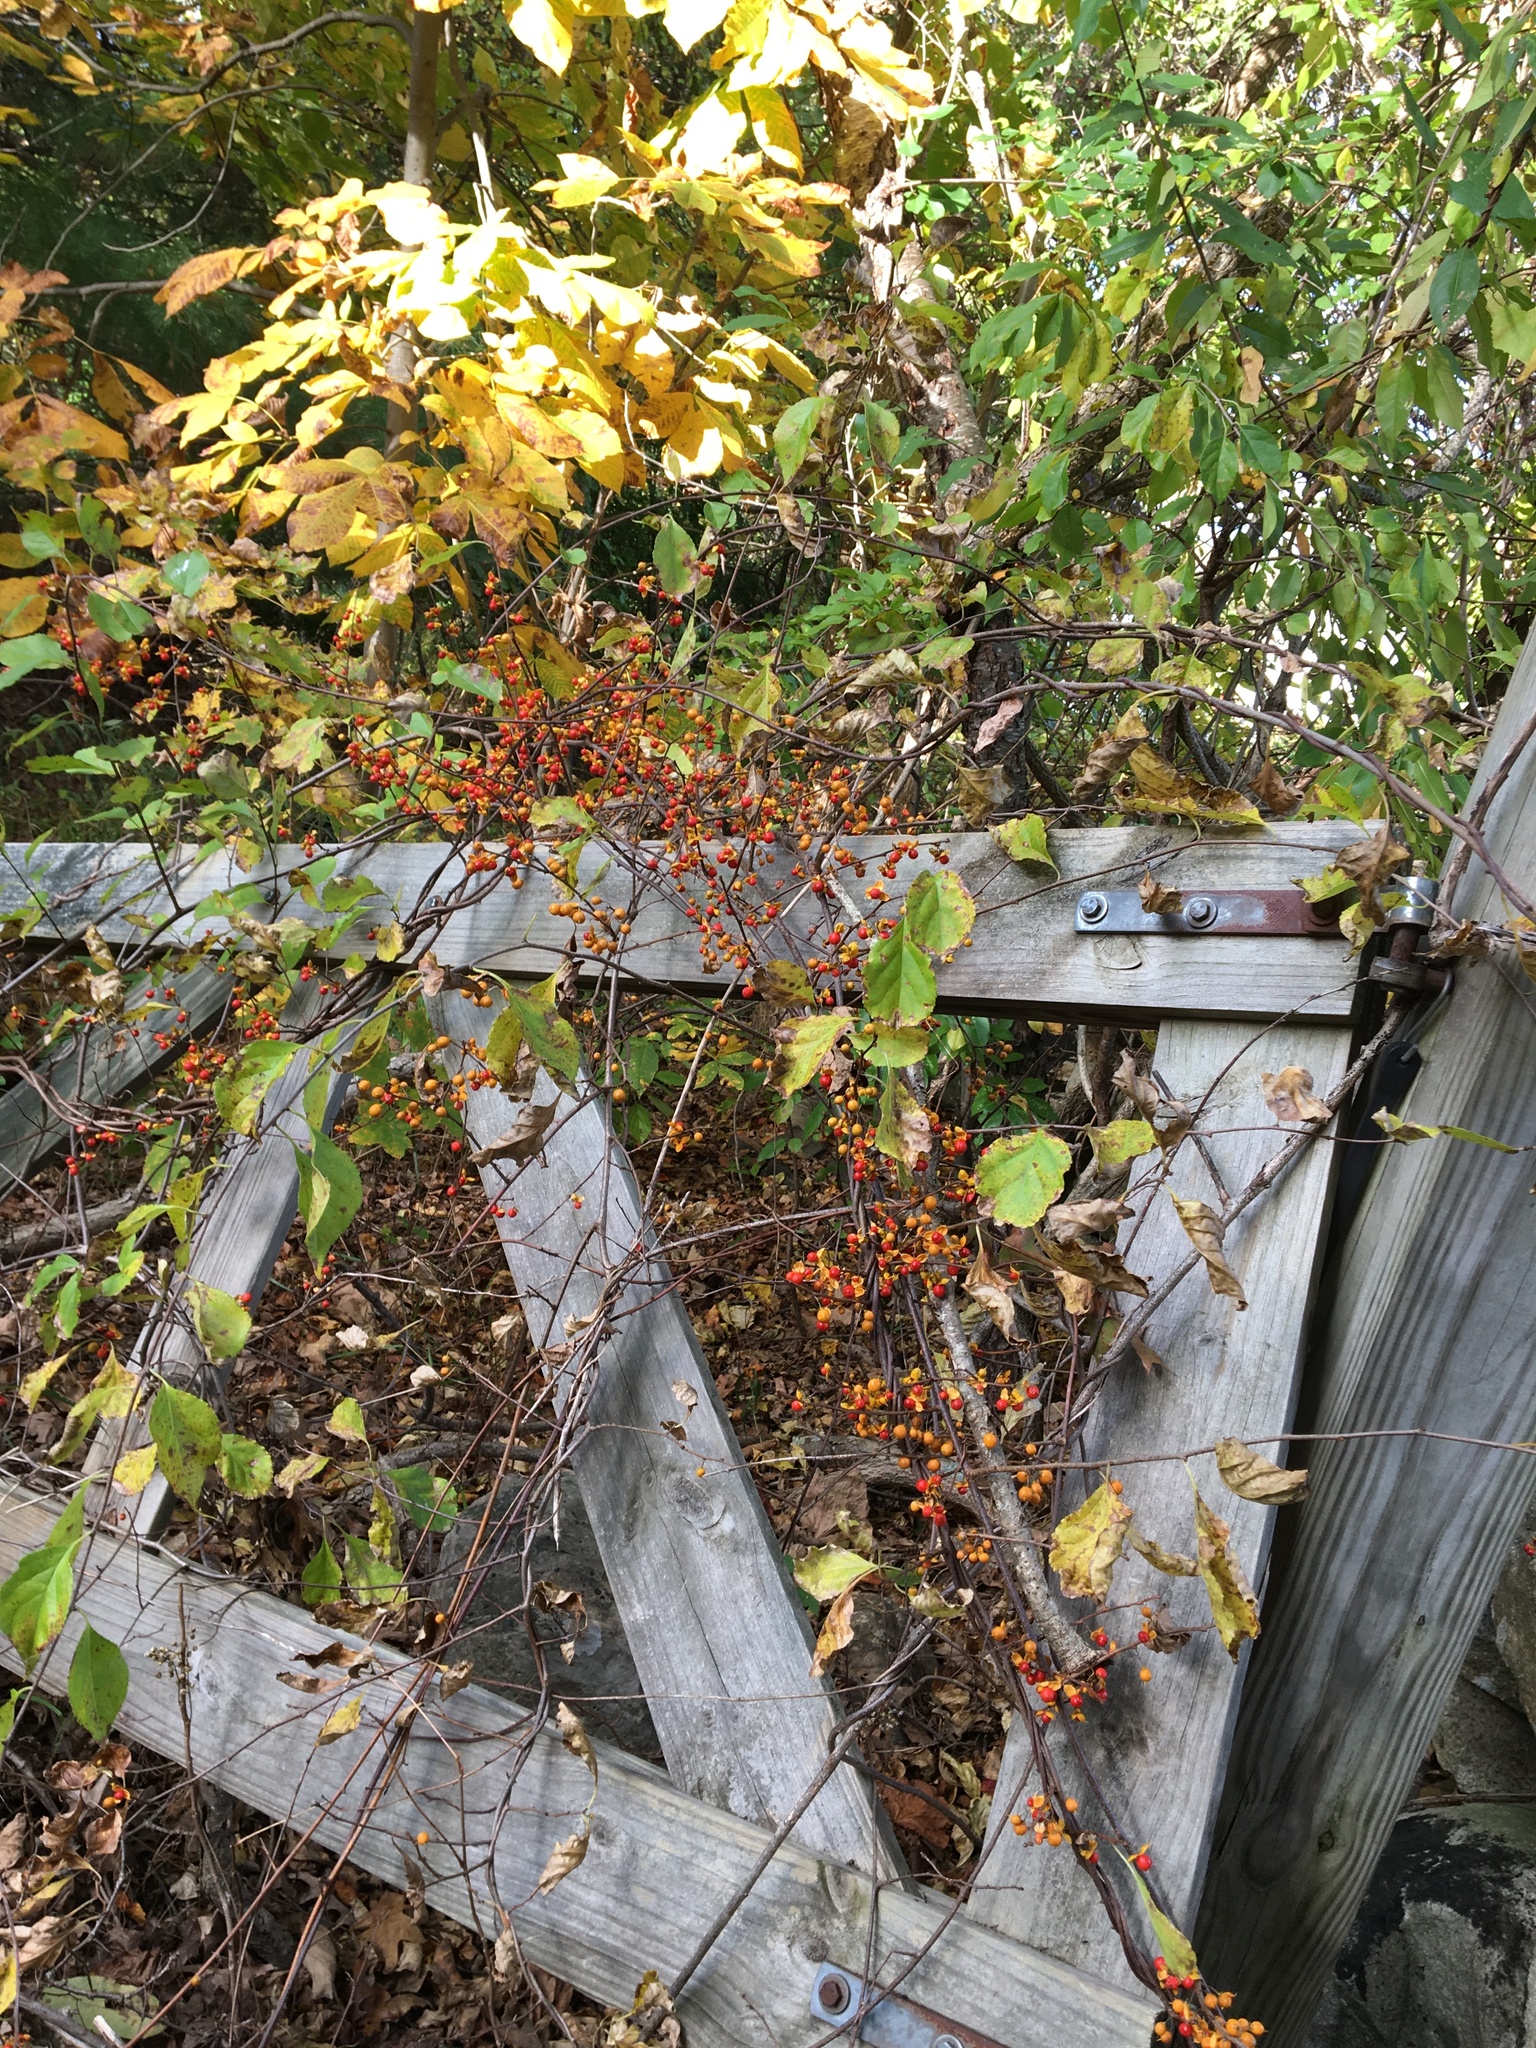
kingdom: Plantae
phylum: Tracheophyta
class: Magnoliopsida
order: Celastrales
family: Celastraceae
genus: Celastrus
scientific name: Celastrus orbiculatus
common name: Oriental bittersweet
